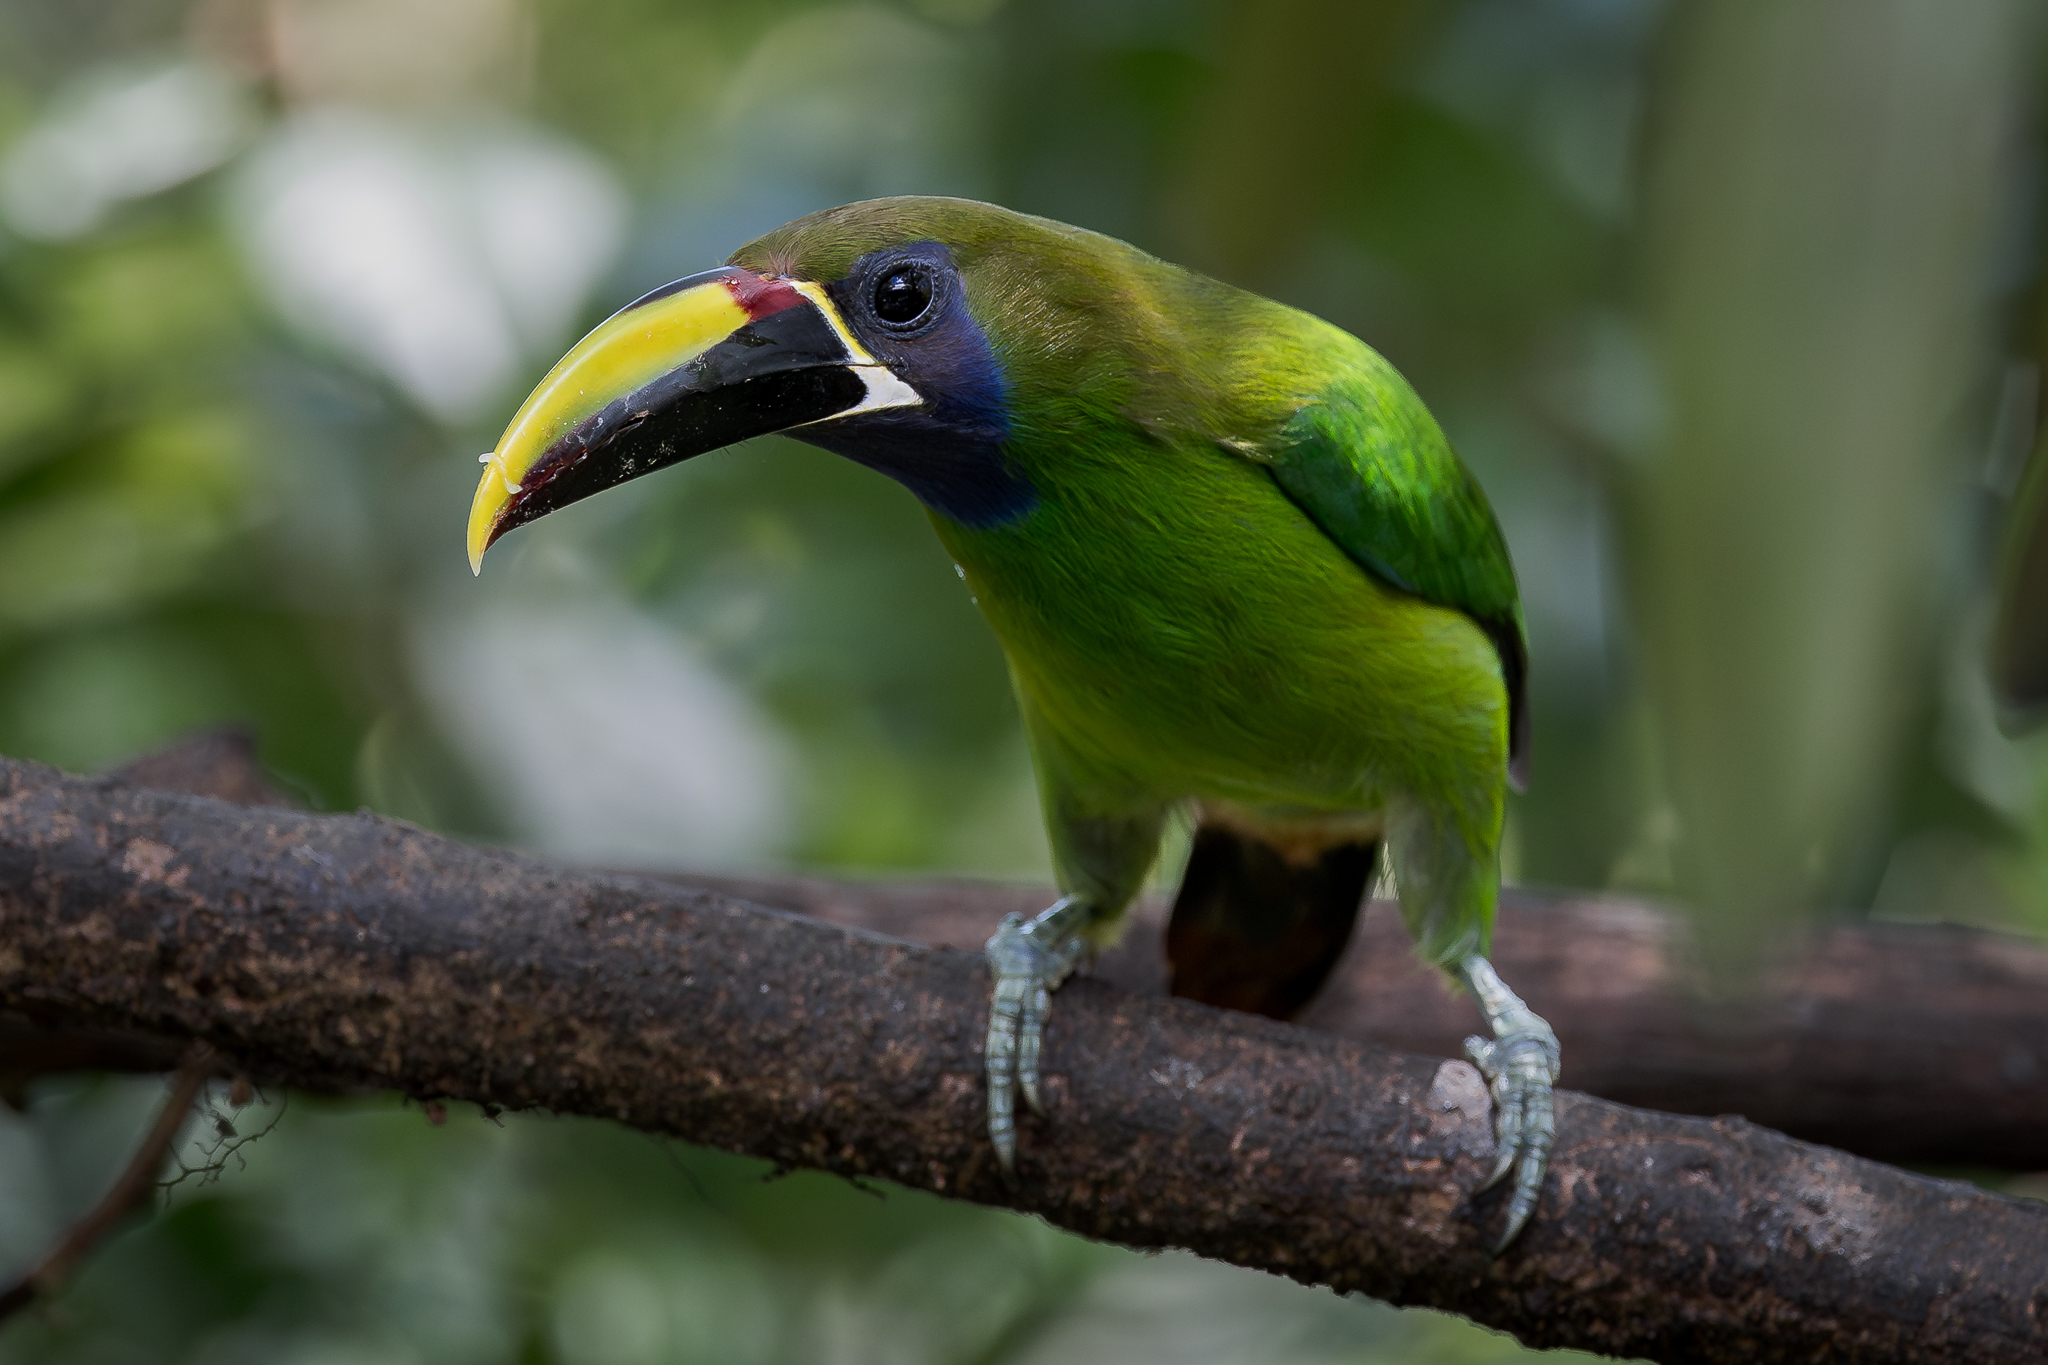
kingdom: Animalia
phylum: Chordata
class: Aves
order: Piciformes
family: Ramphastidae
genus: Aulacorhynchus
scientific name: Aulacorhynchus prasinus
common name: Emerald toucanet
